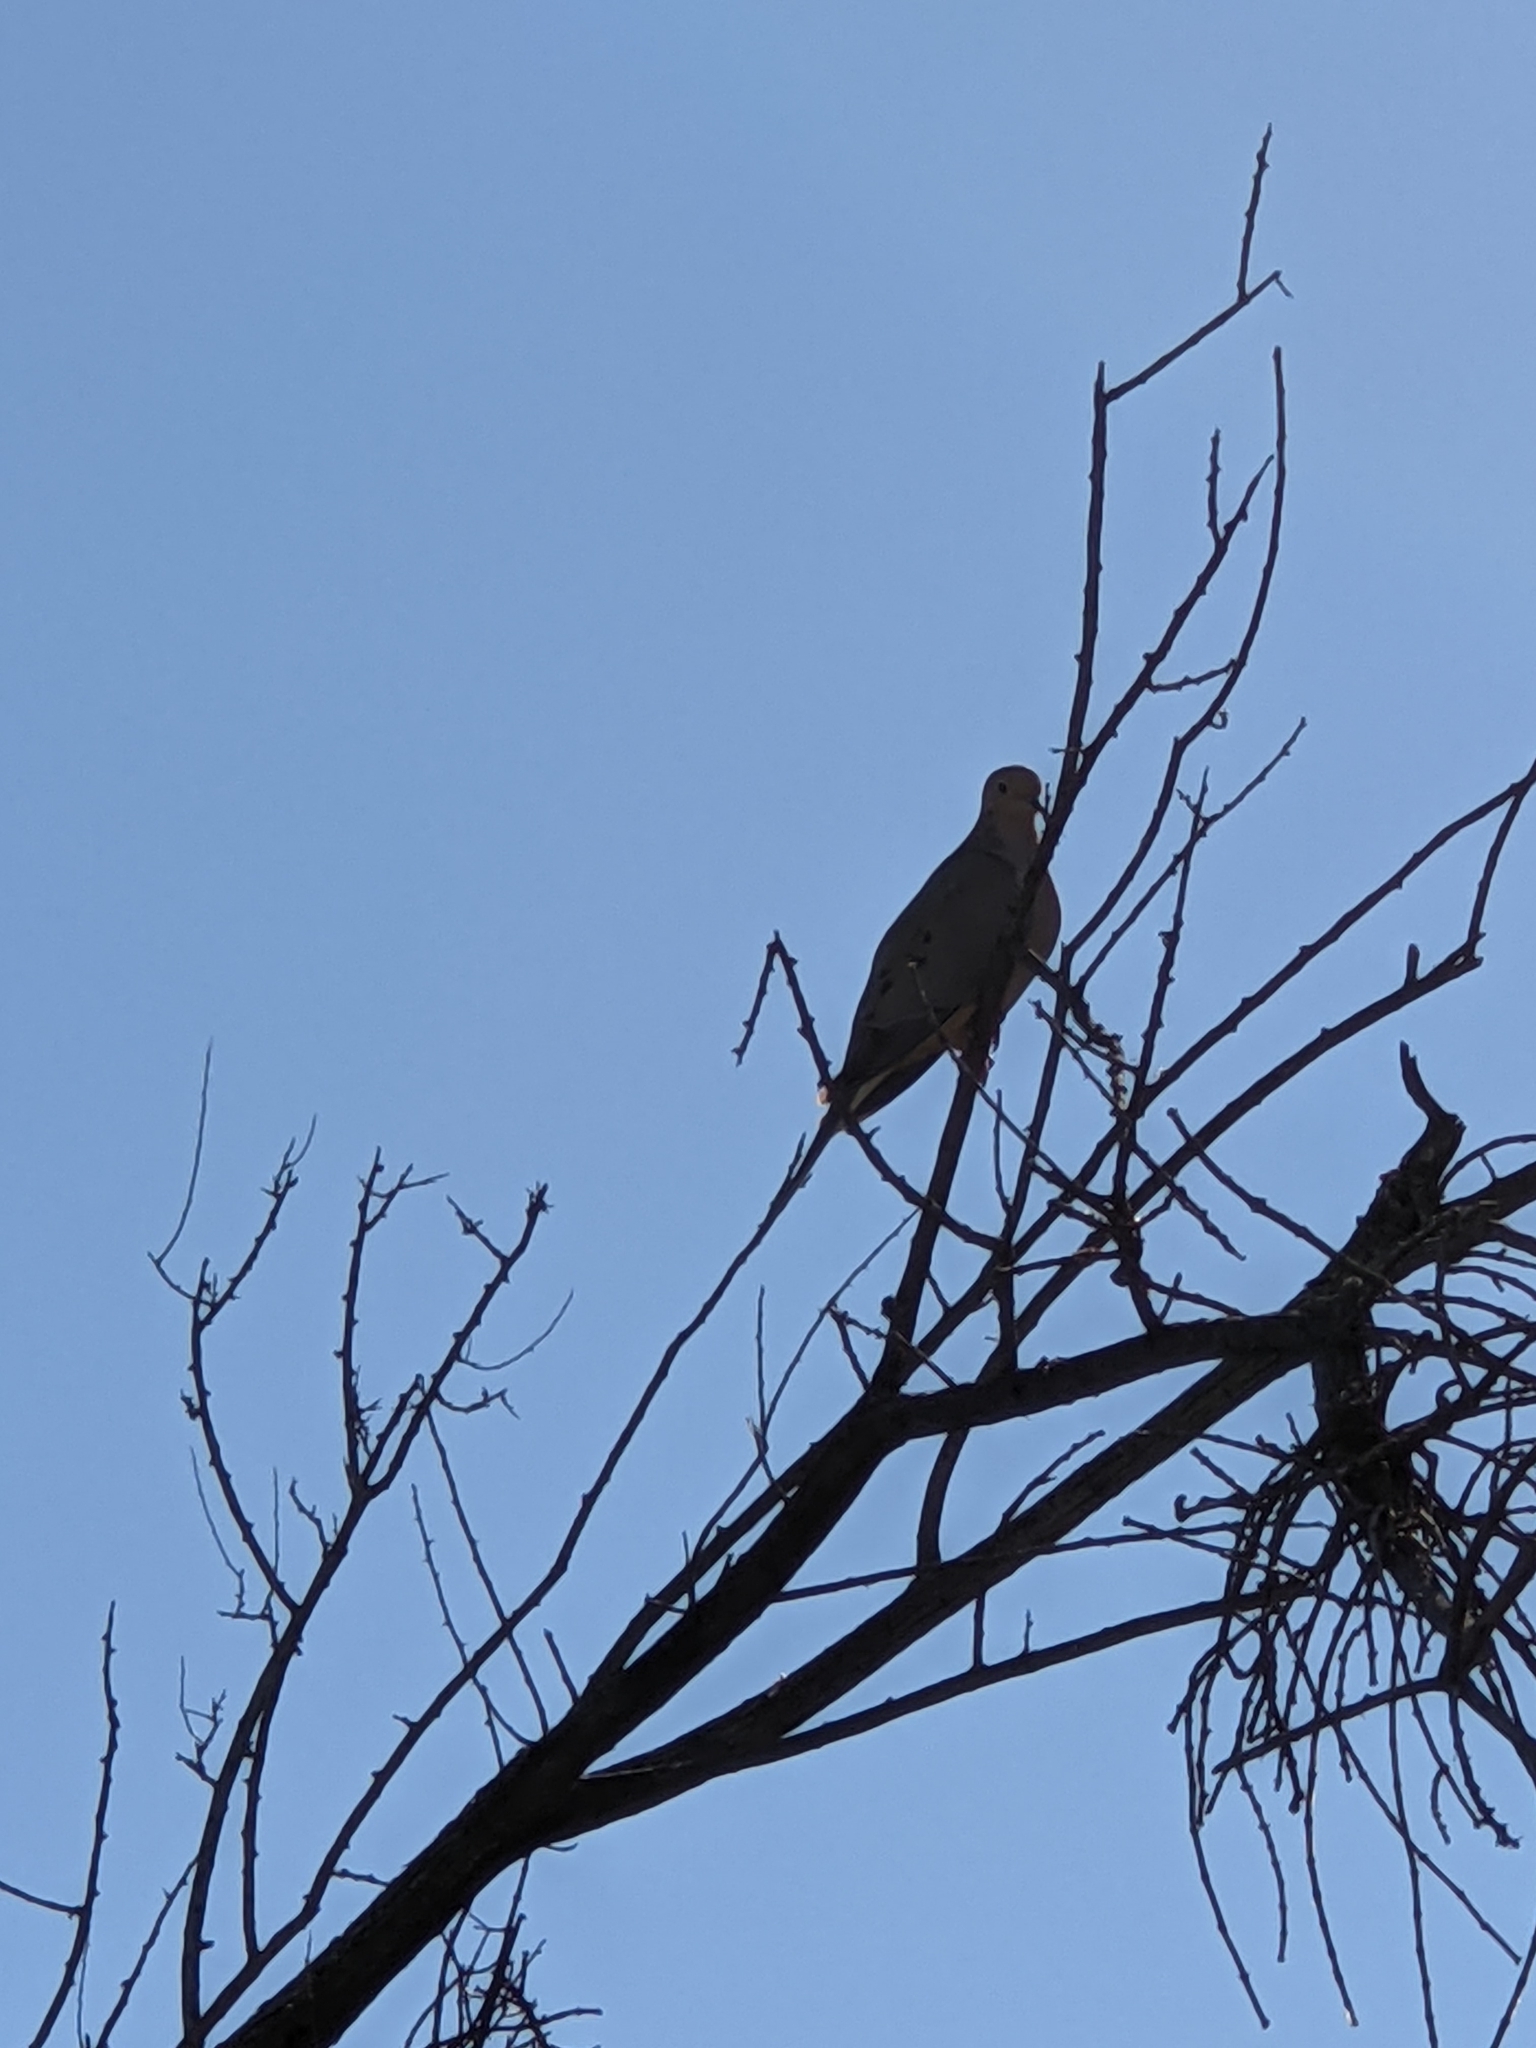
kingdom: Animalia
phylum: Chordata
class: Aves
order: Columbiformes
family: Columbidae
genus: Zenaida
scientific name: Zenaida macroura
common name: Mourning dove
